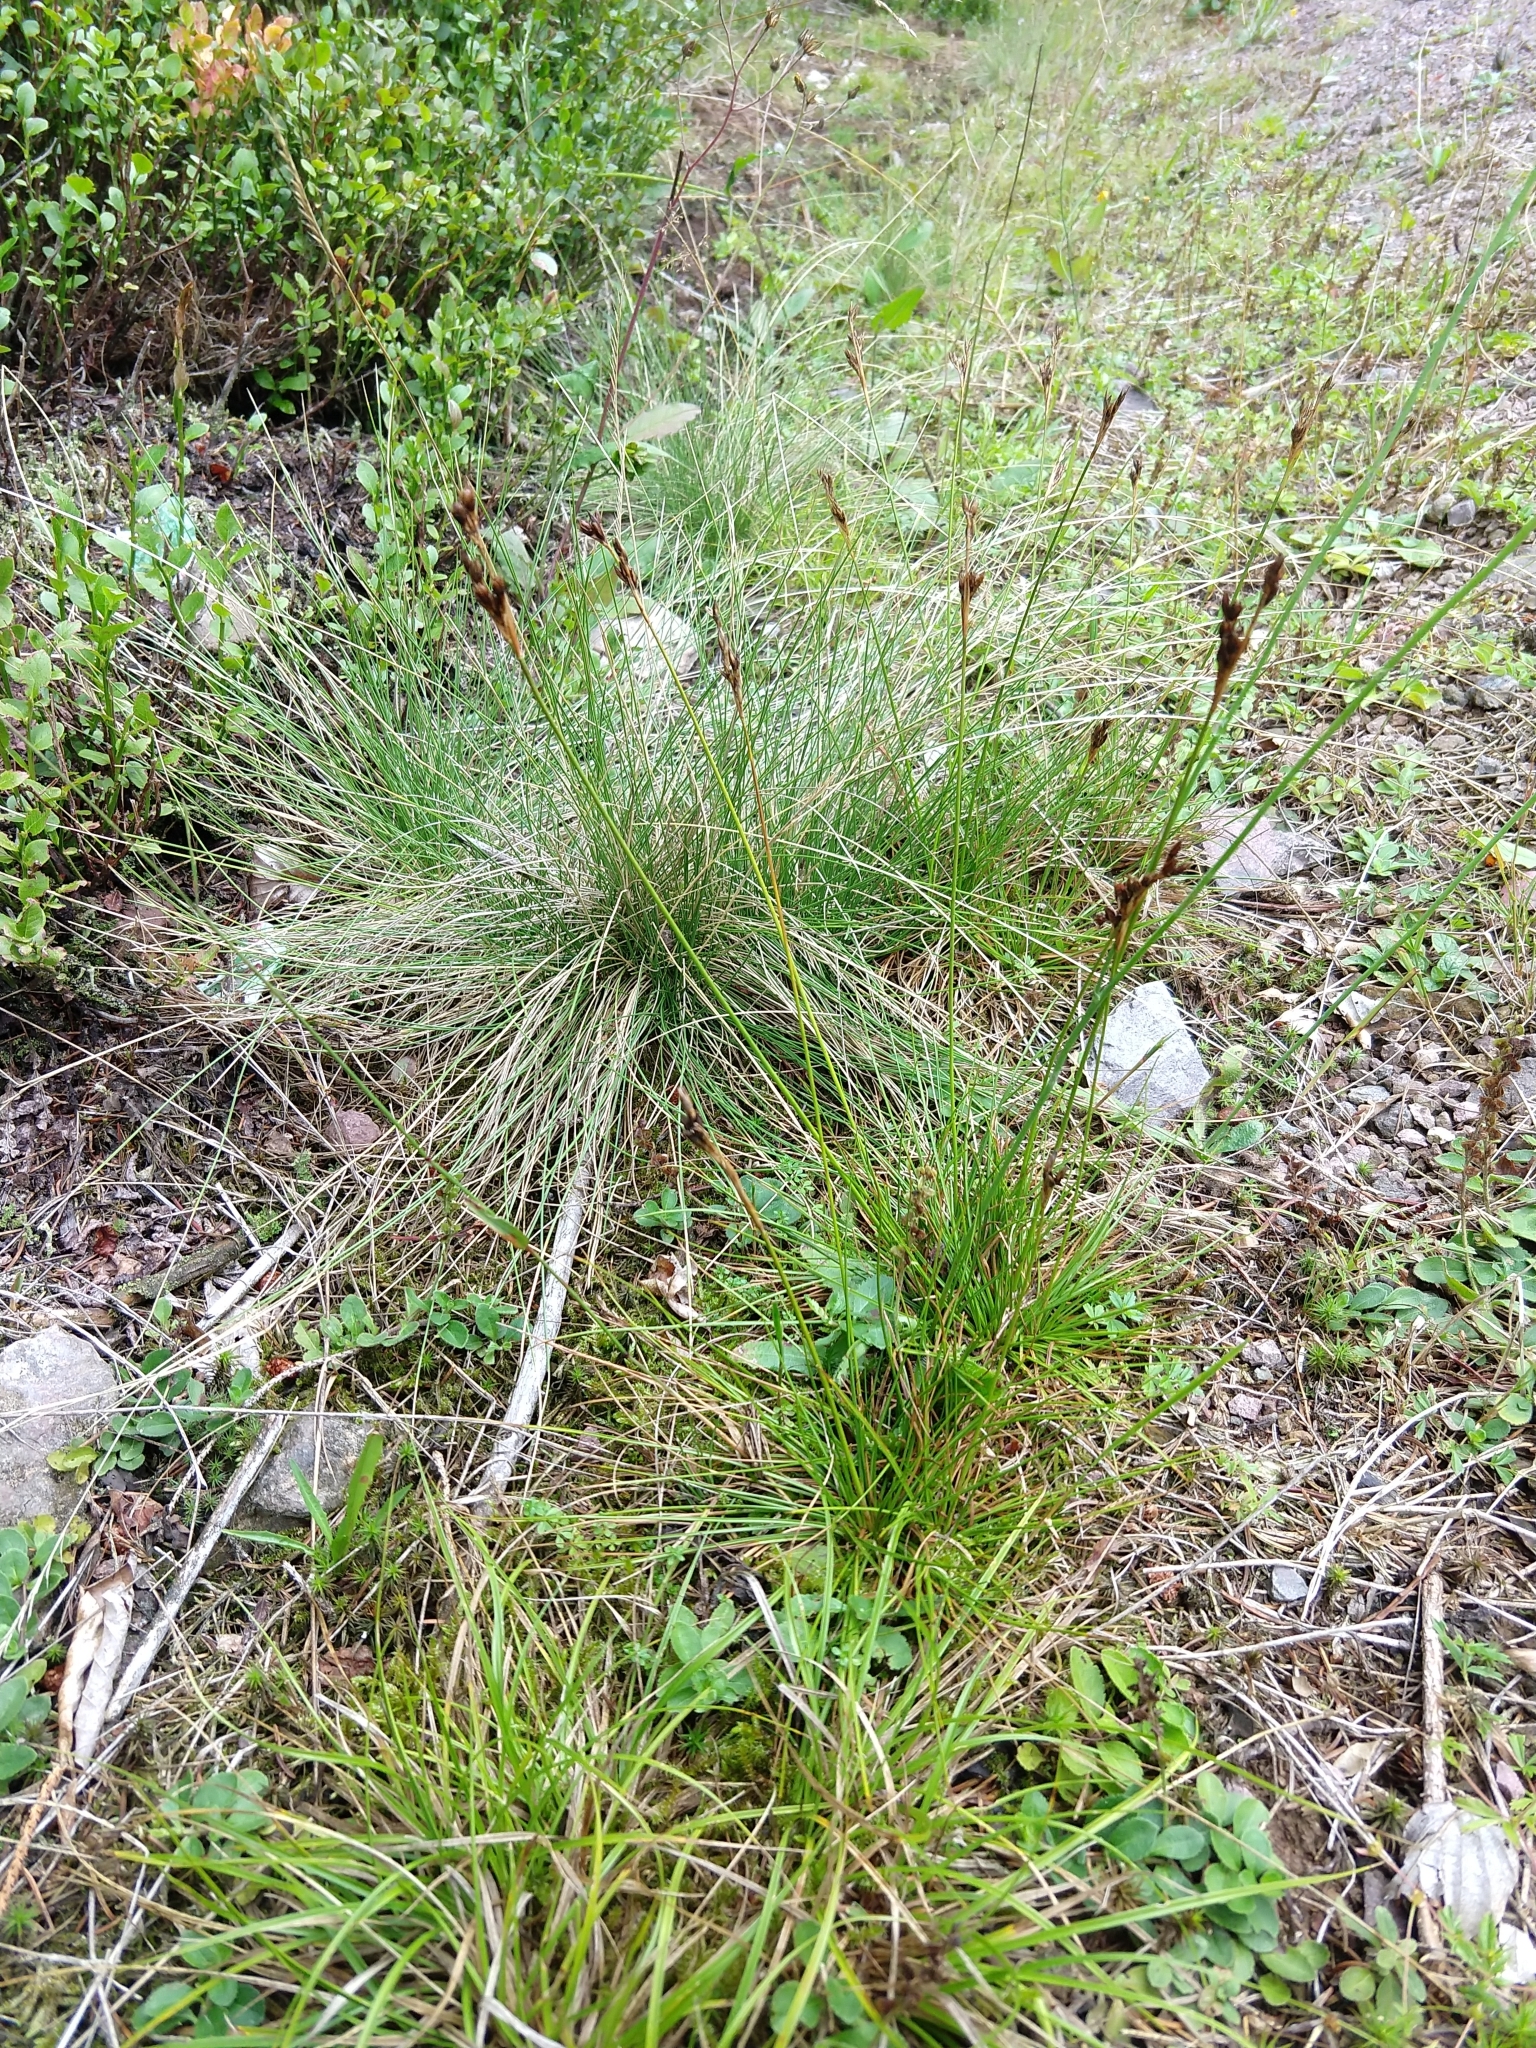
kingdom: Plantae
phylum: Tracheophyta
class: Liliopsida
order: Poales
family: Juncaceae
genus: Juncus
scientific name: Juncus squarrosus
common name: Heath rush
